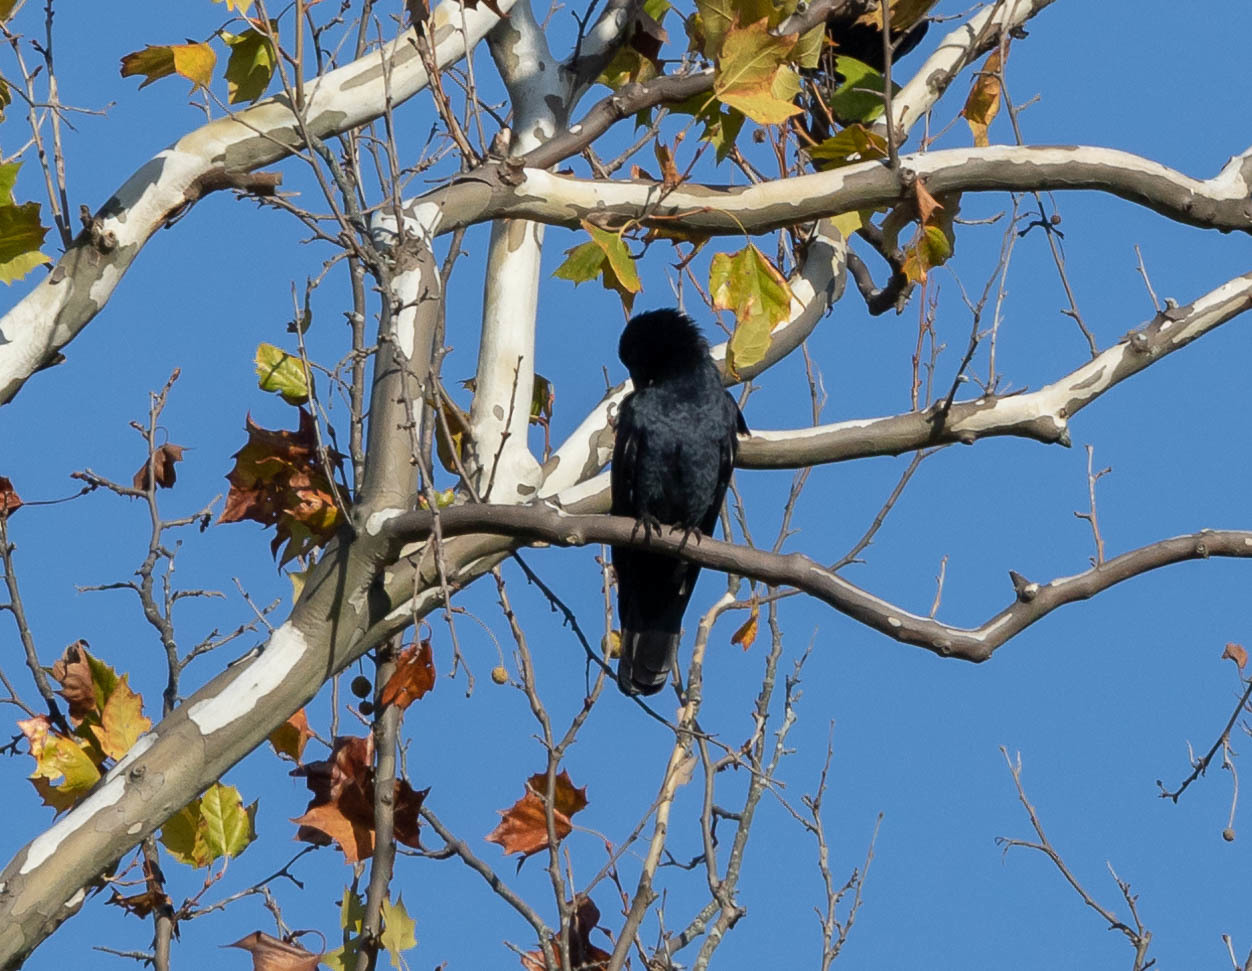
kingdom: Animalia
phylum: Chordata
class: Aves
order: Passeriformes
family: Corvidae
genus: Corvus
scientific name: Corvus ossifragus
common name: Fish crow
